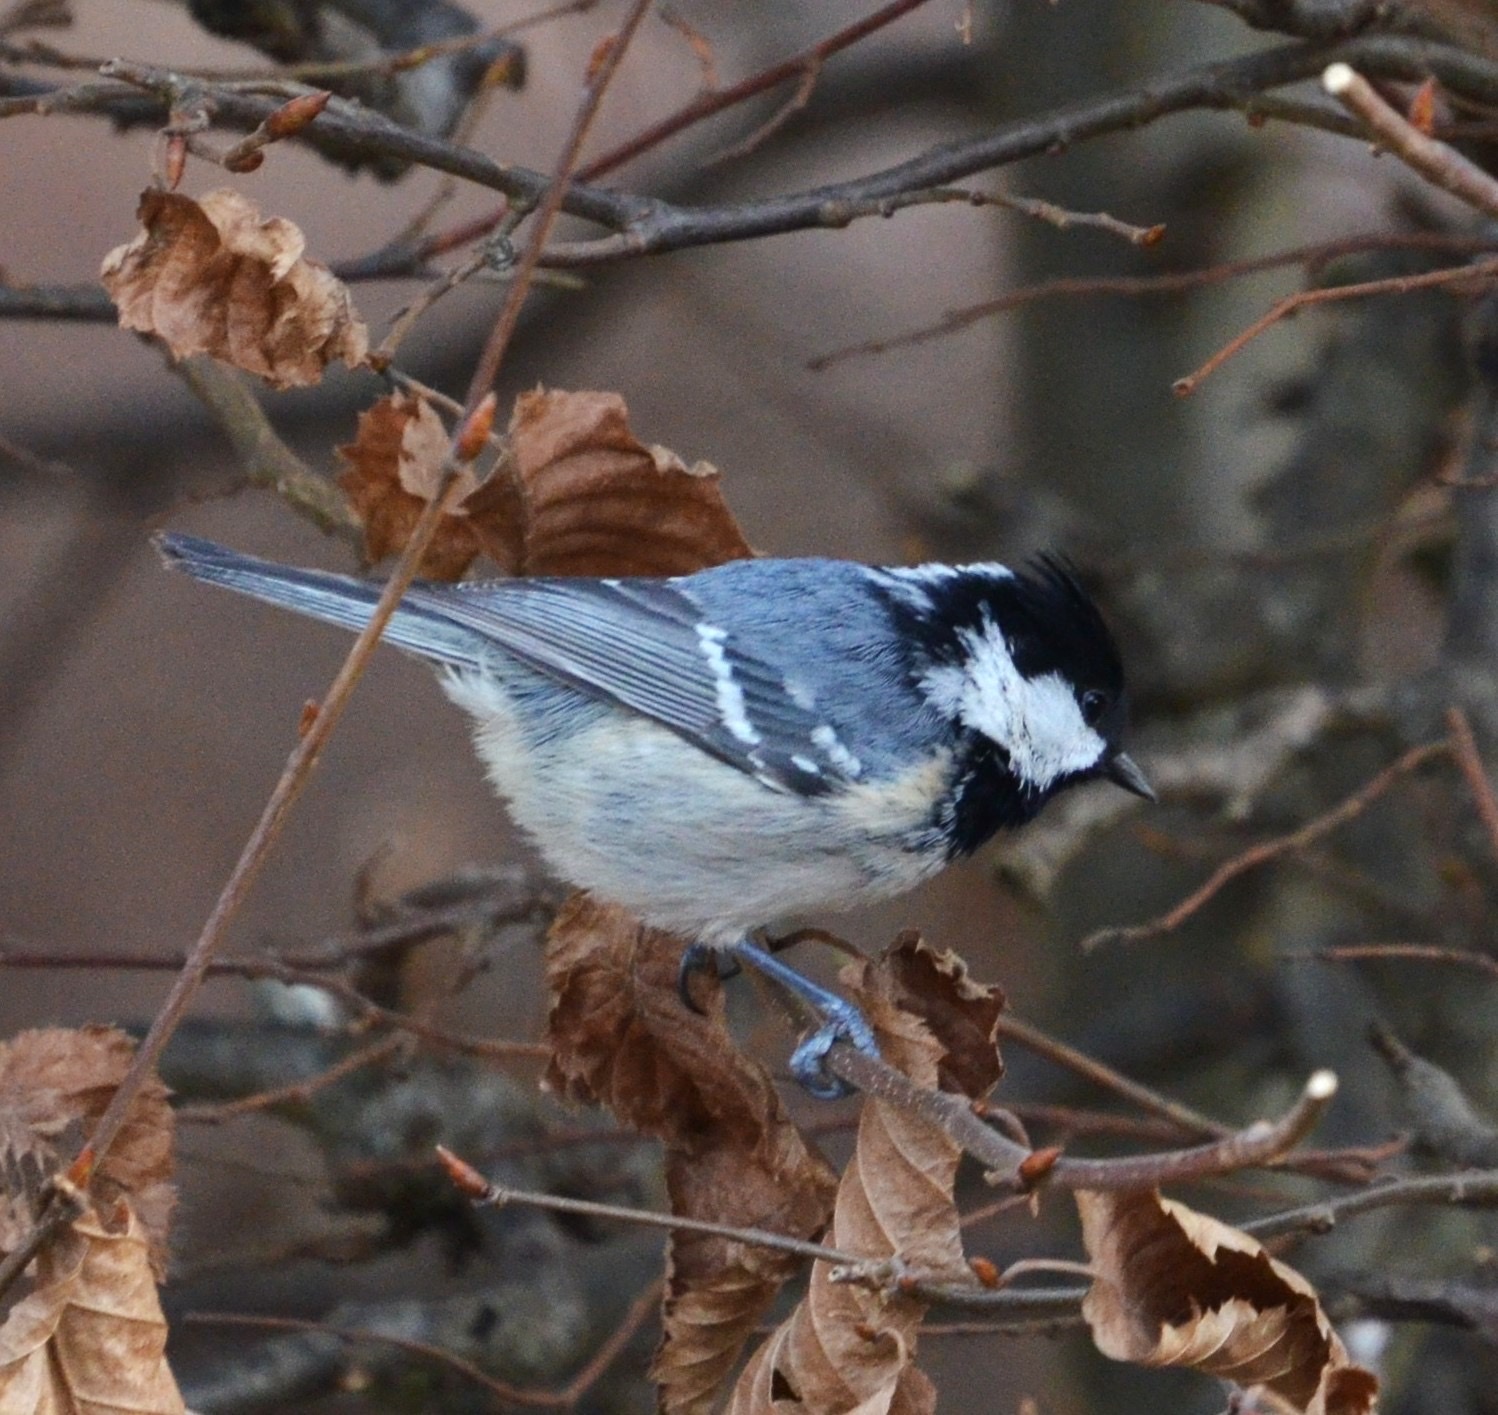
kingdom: Animalia
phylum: Chordata
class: Aves
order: Passeriformes
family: Paridae
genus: Periparus
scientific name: Periparus ater
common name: Coal tit
